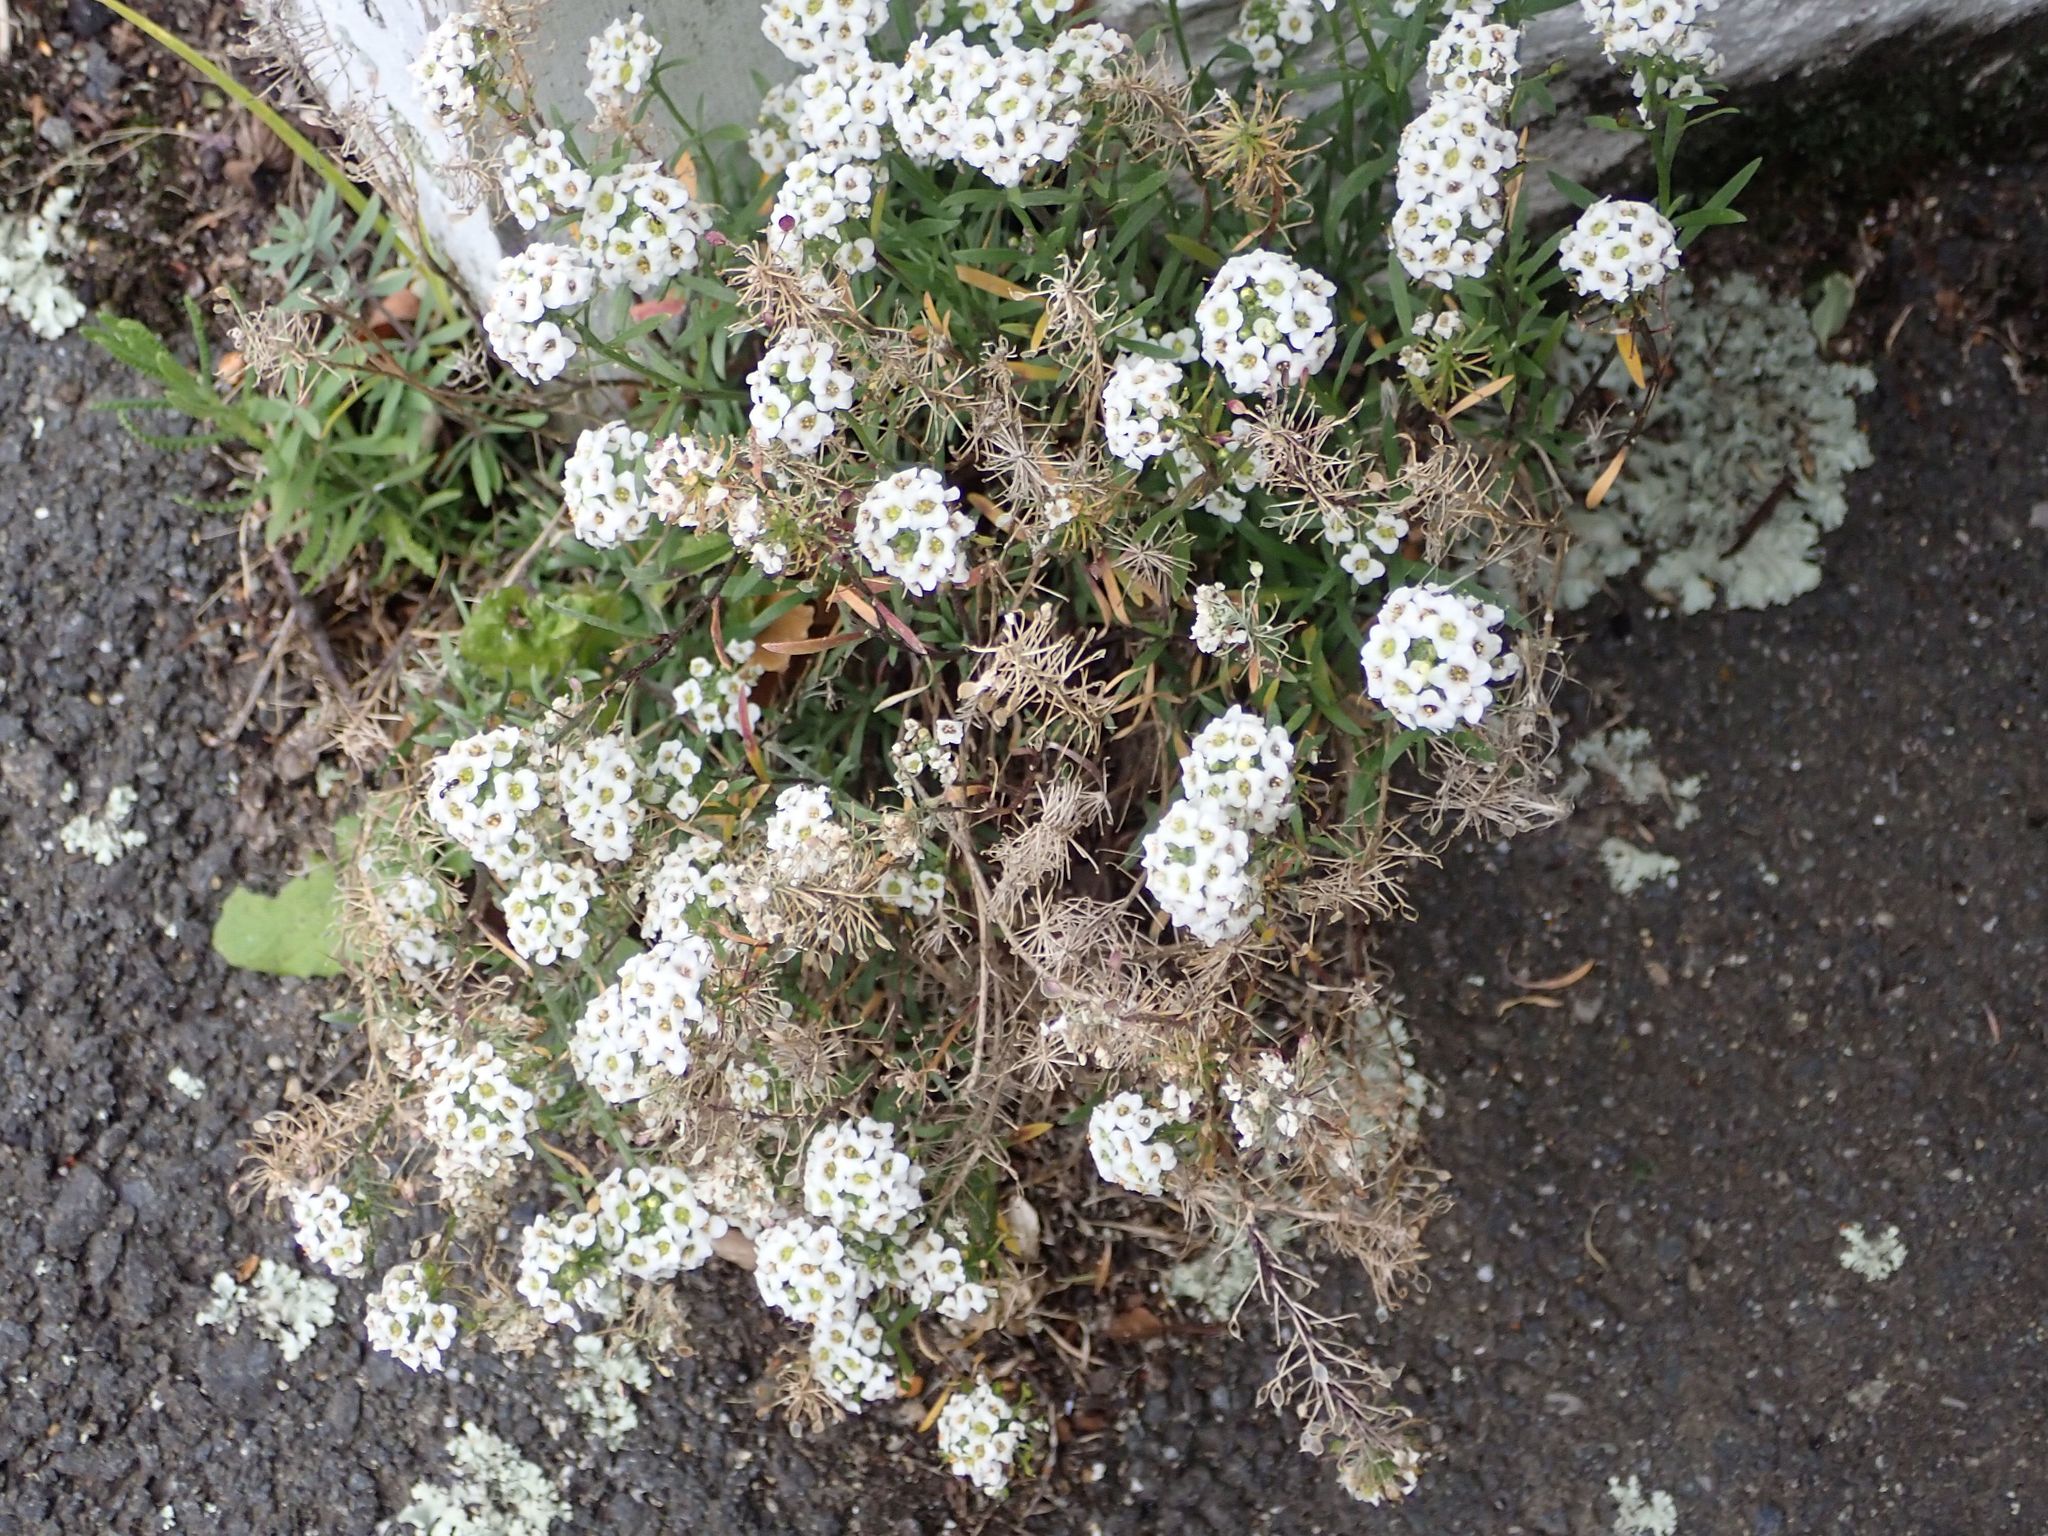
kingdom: Plantae
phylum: Tracheophyta
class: Magnoliopsida
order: Brassicales
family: Brassicaceae
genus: Lobularia
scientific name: Lobularia maritima
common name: Sweet alison
